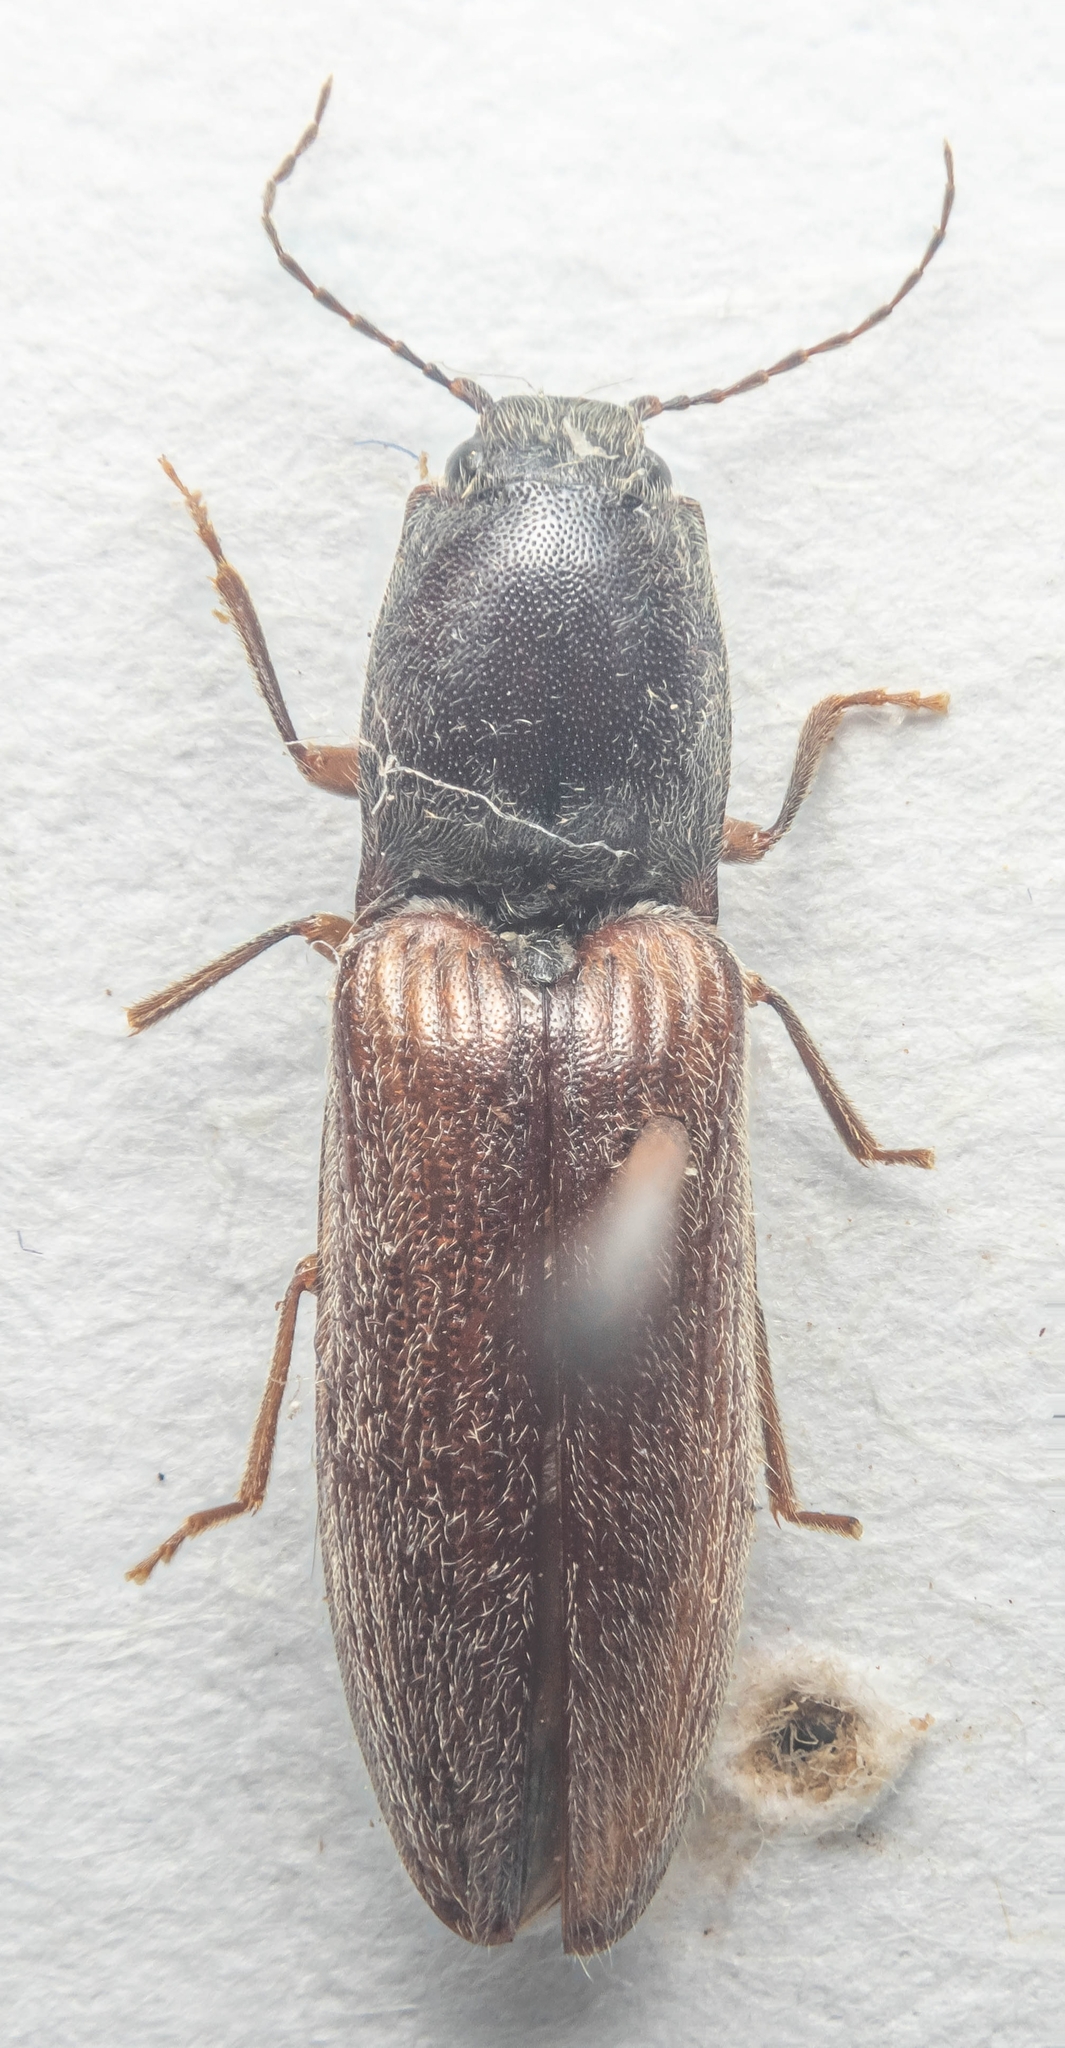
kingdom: Animalia
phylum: Arthropoda
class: Insecta
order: Coleoptera
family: Elateridae
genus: Athous
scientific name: Athous haemorrhoidalis
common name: Red-brown click beetle
